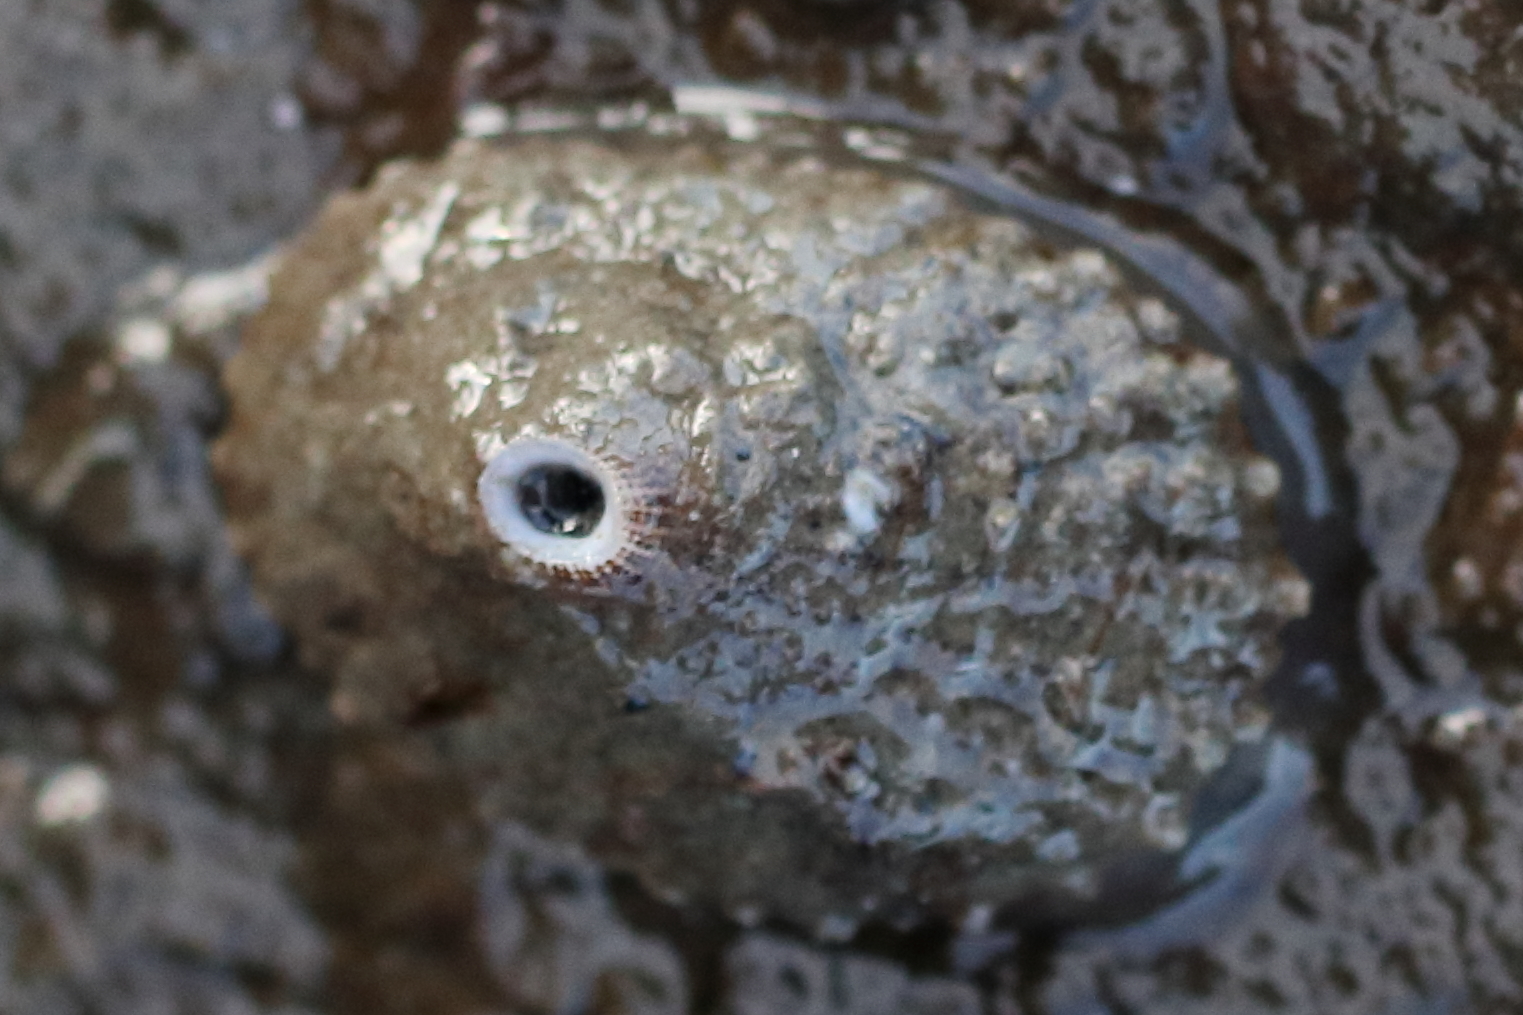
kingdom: Animalia
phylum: Mollusca
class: Gastropoda
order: Lepetellida
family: Fissurellidae
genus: Diodora
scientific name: Diodora aspera
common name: Rough keyhole limpet
